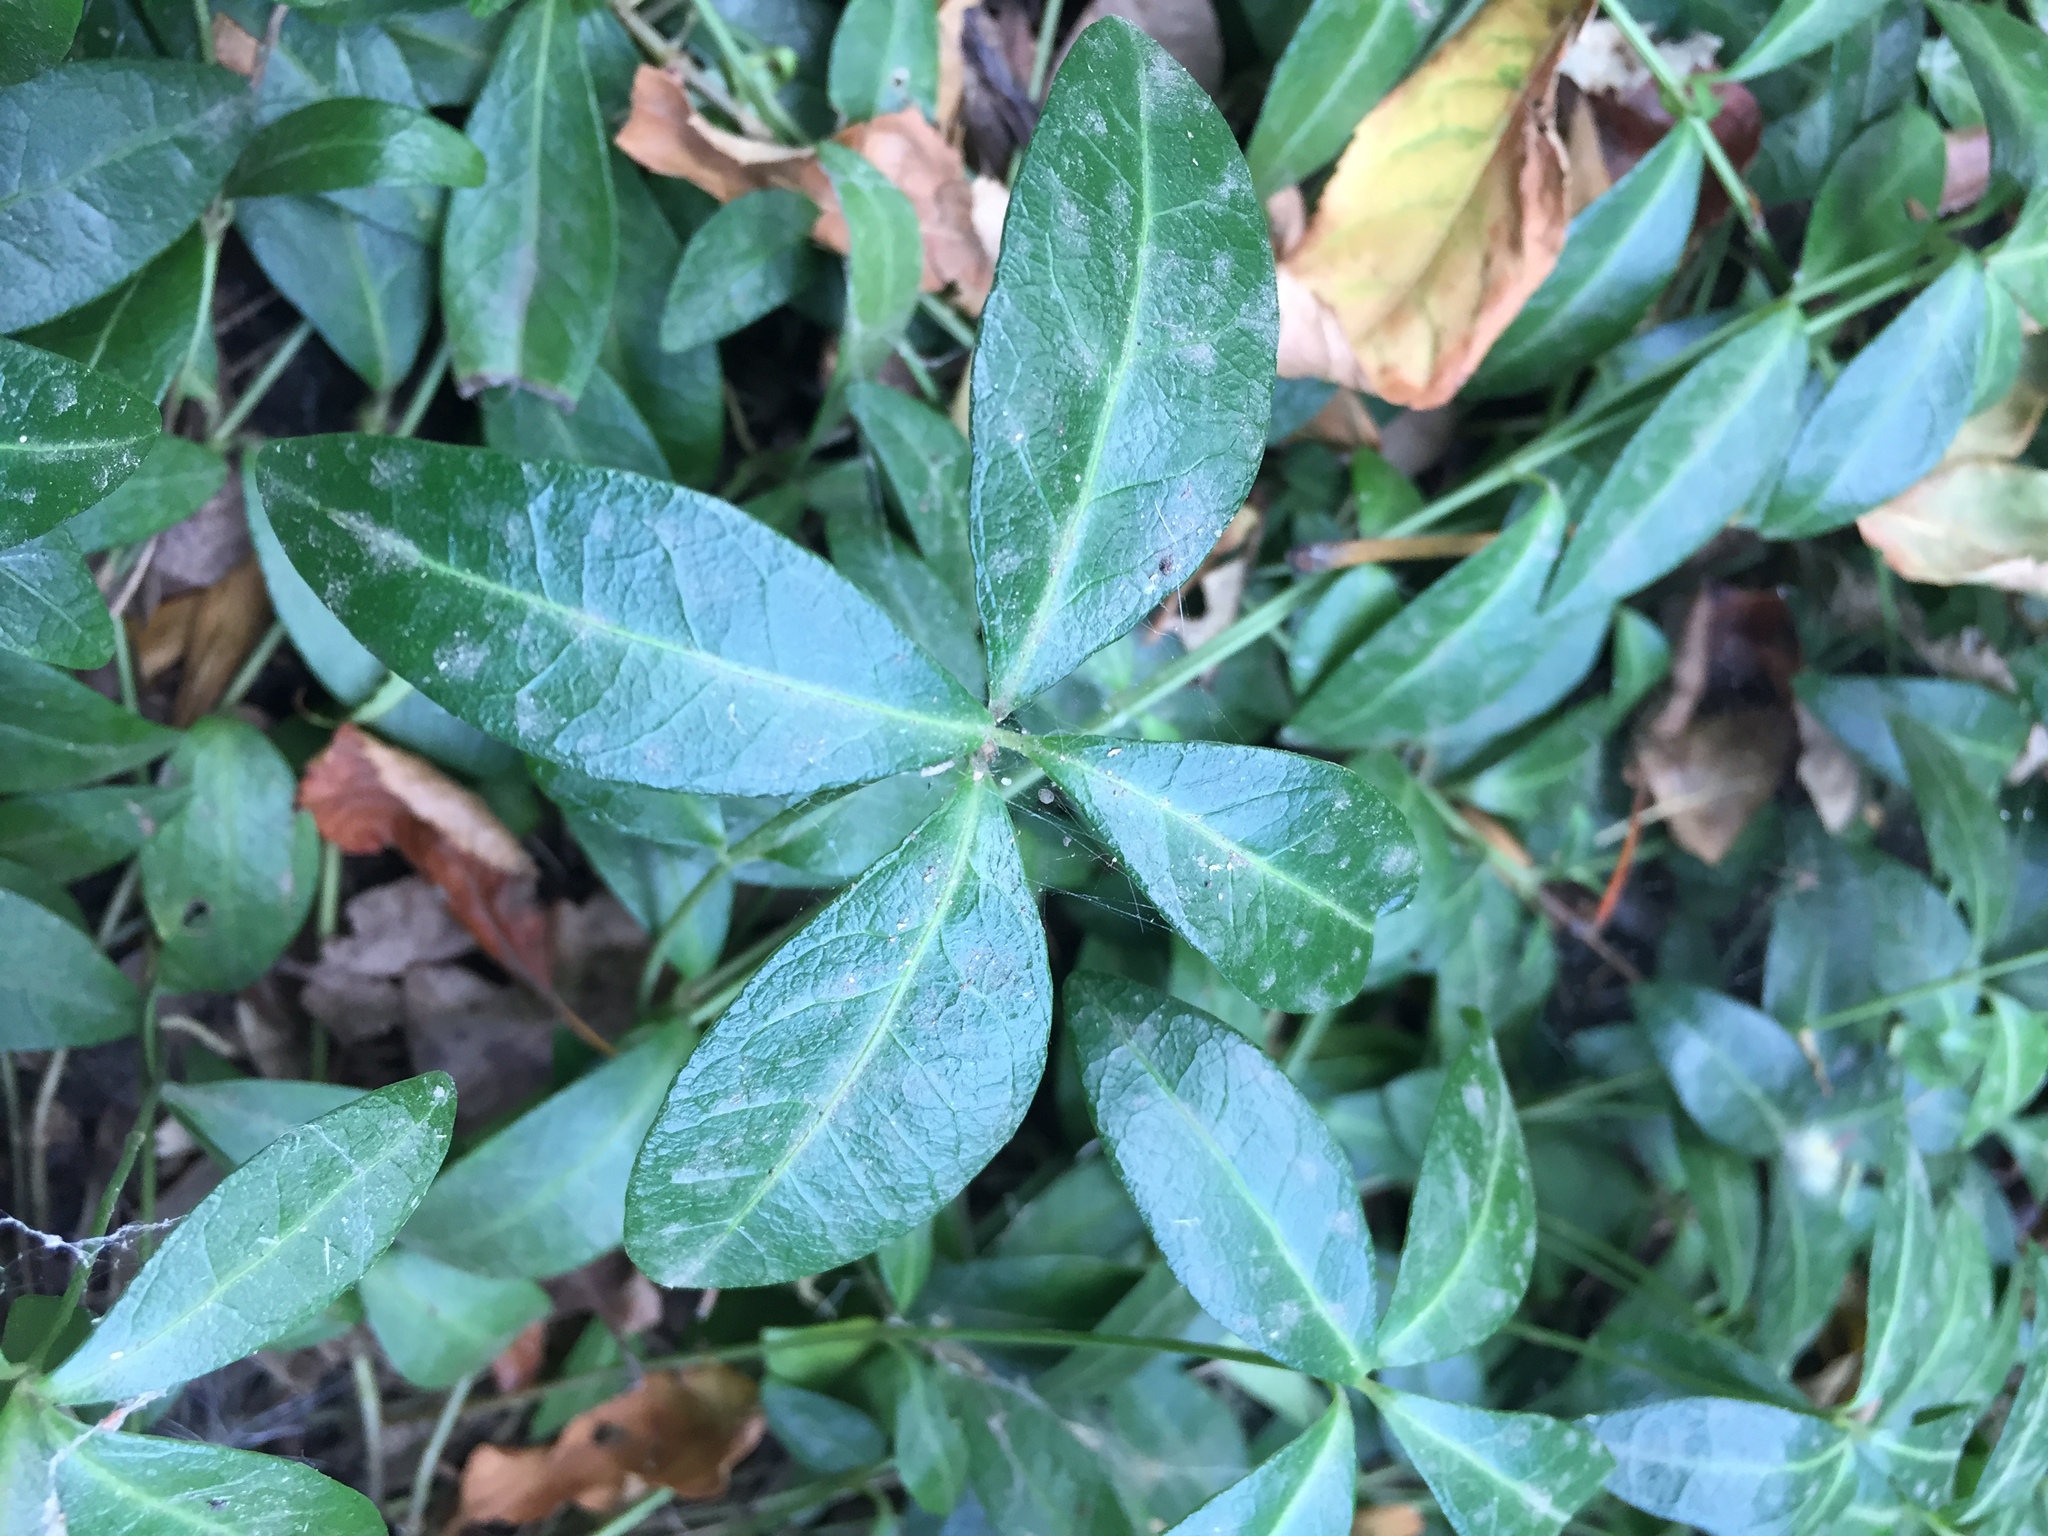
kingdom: Plantae
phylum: Tracheophyta
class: Magnoliopsida
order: Gentianales
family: Apocynaceae
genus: Vinca
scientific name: Vinca minor
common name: Lesser periwinkle
